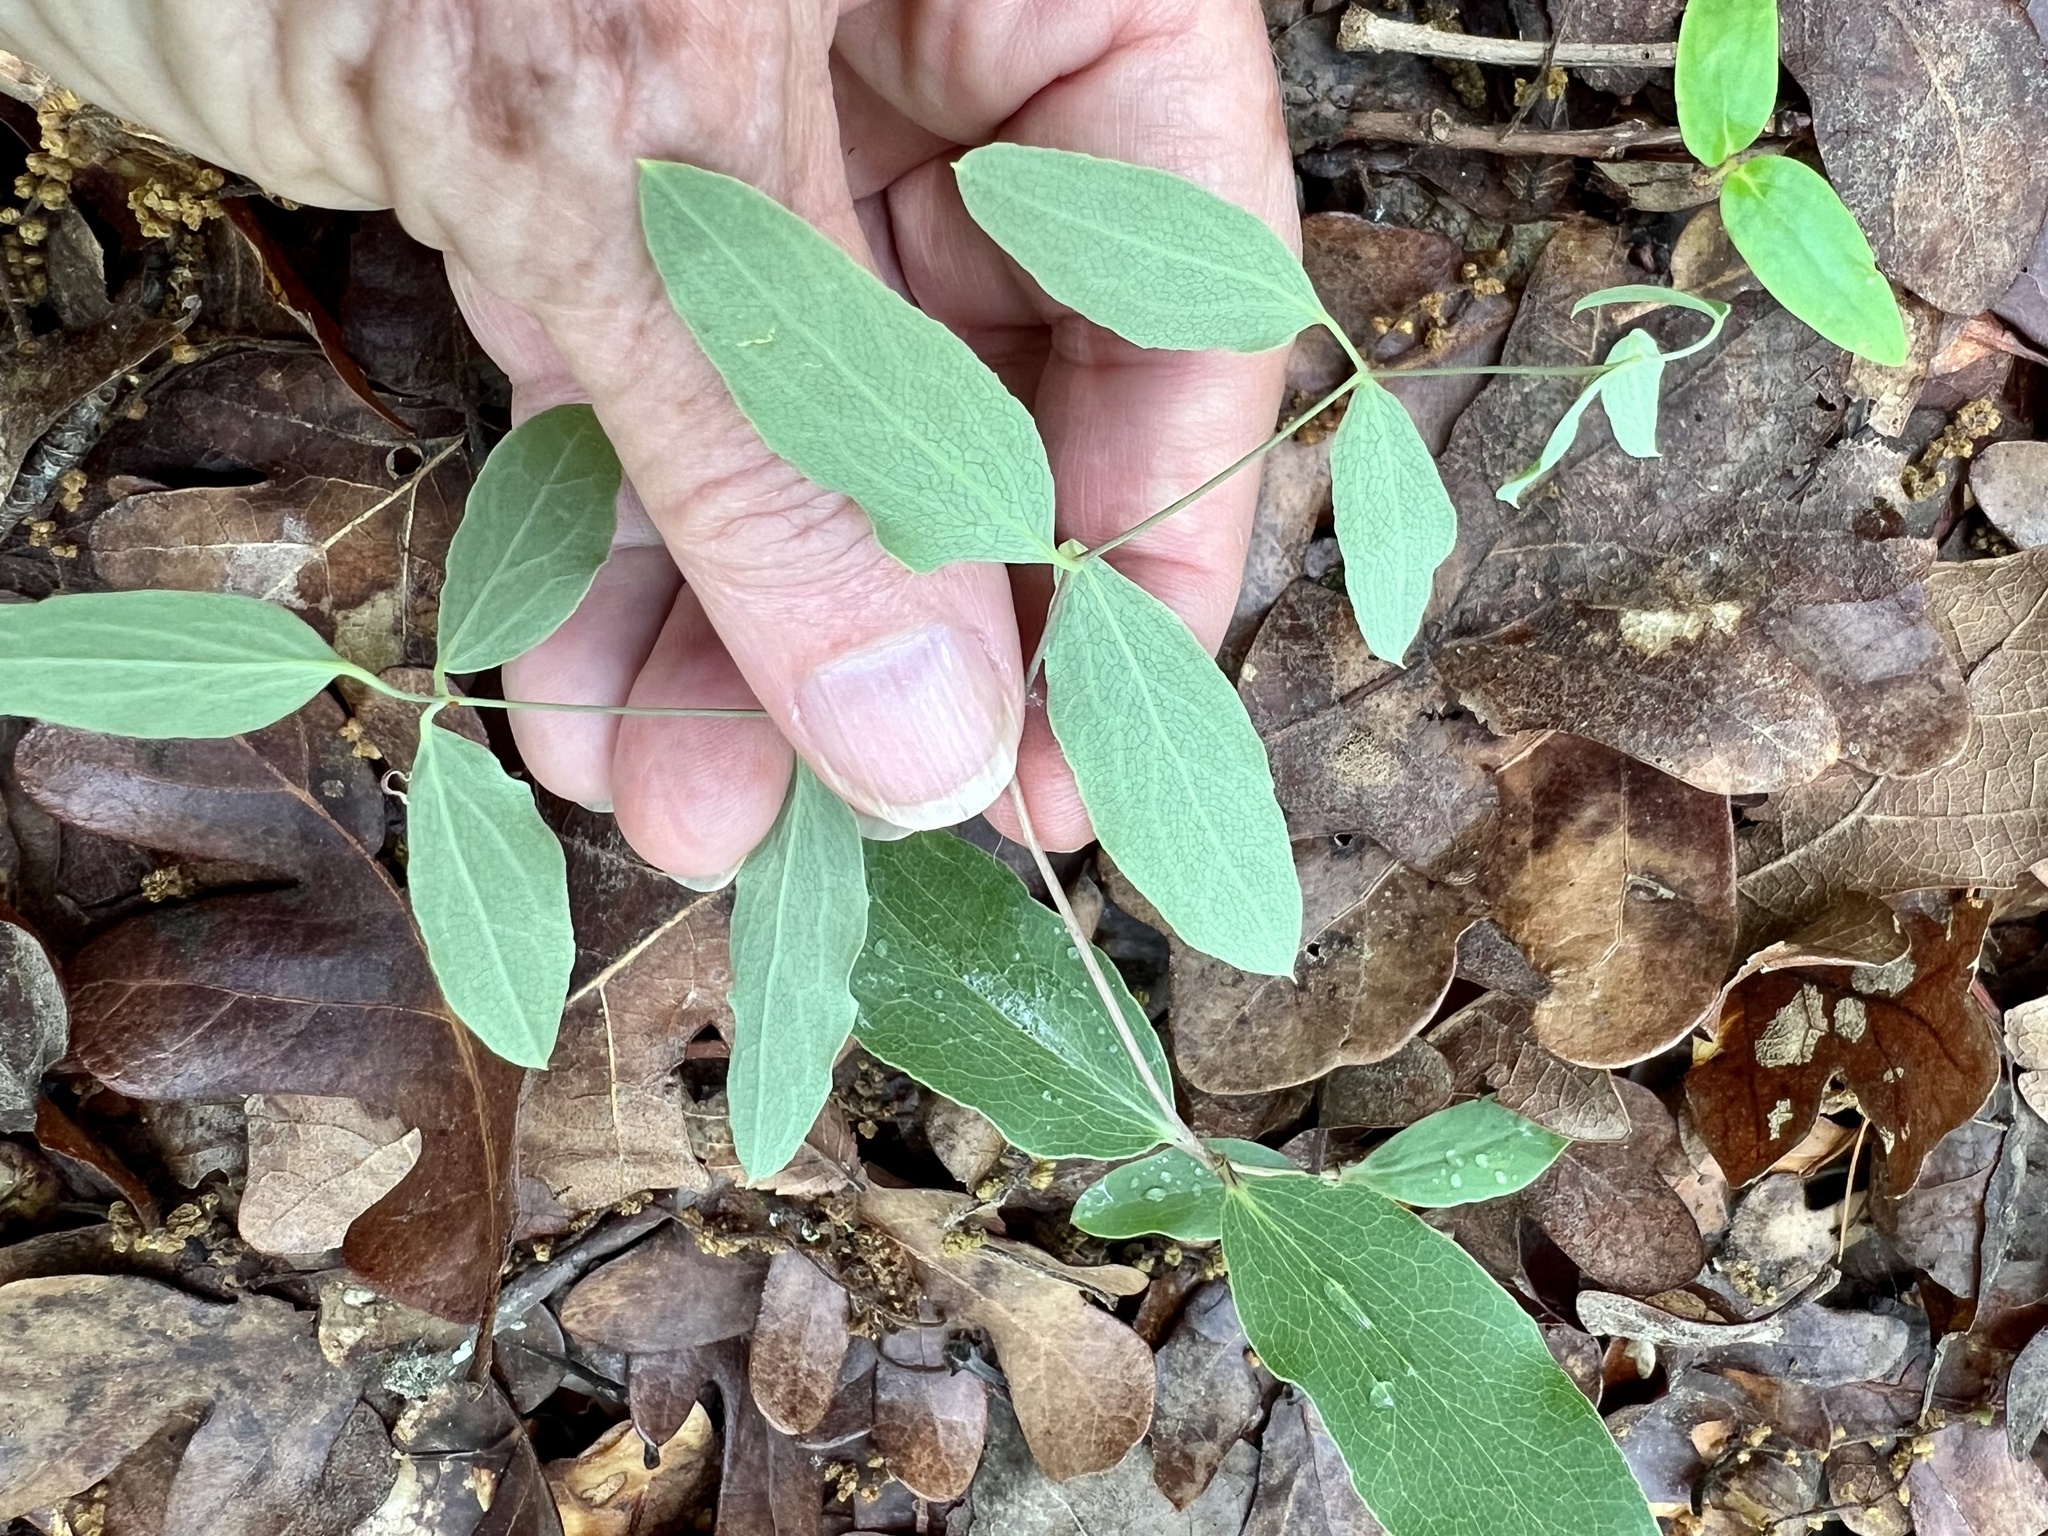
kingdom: Plantae
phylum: Tracheophyta
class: Magnoliopsida
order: Ranunculales
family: Ranunculaceae
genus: Clematis
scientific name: Clematis carrizoensis
